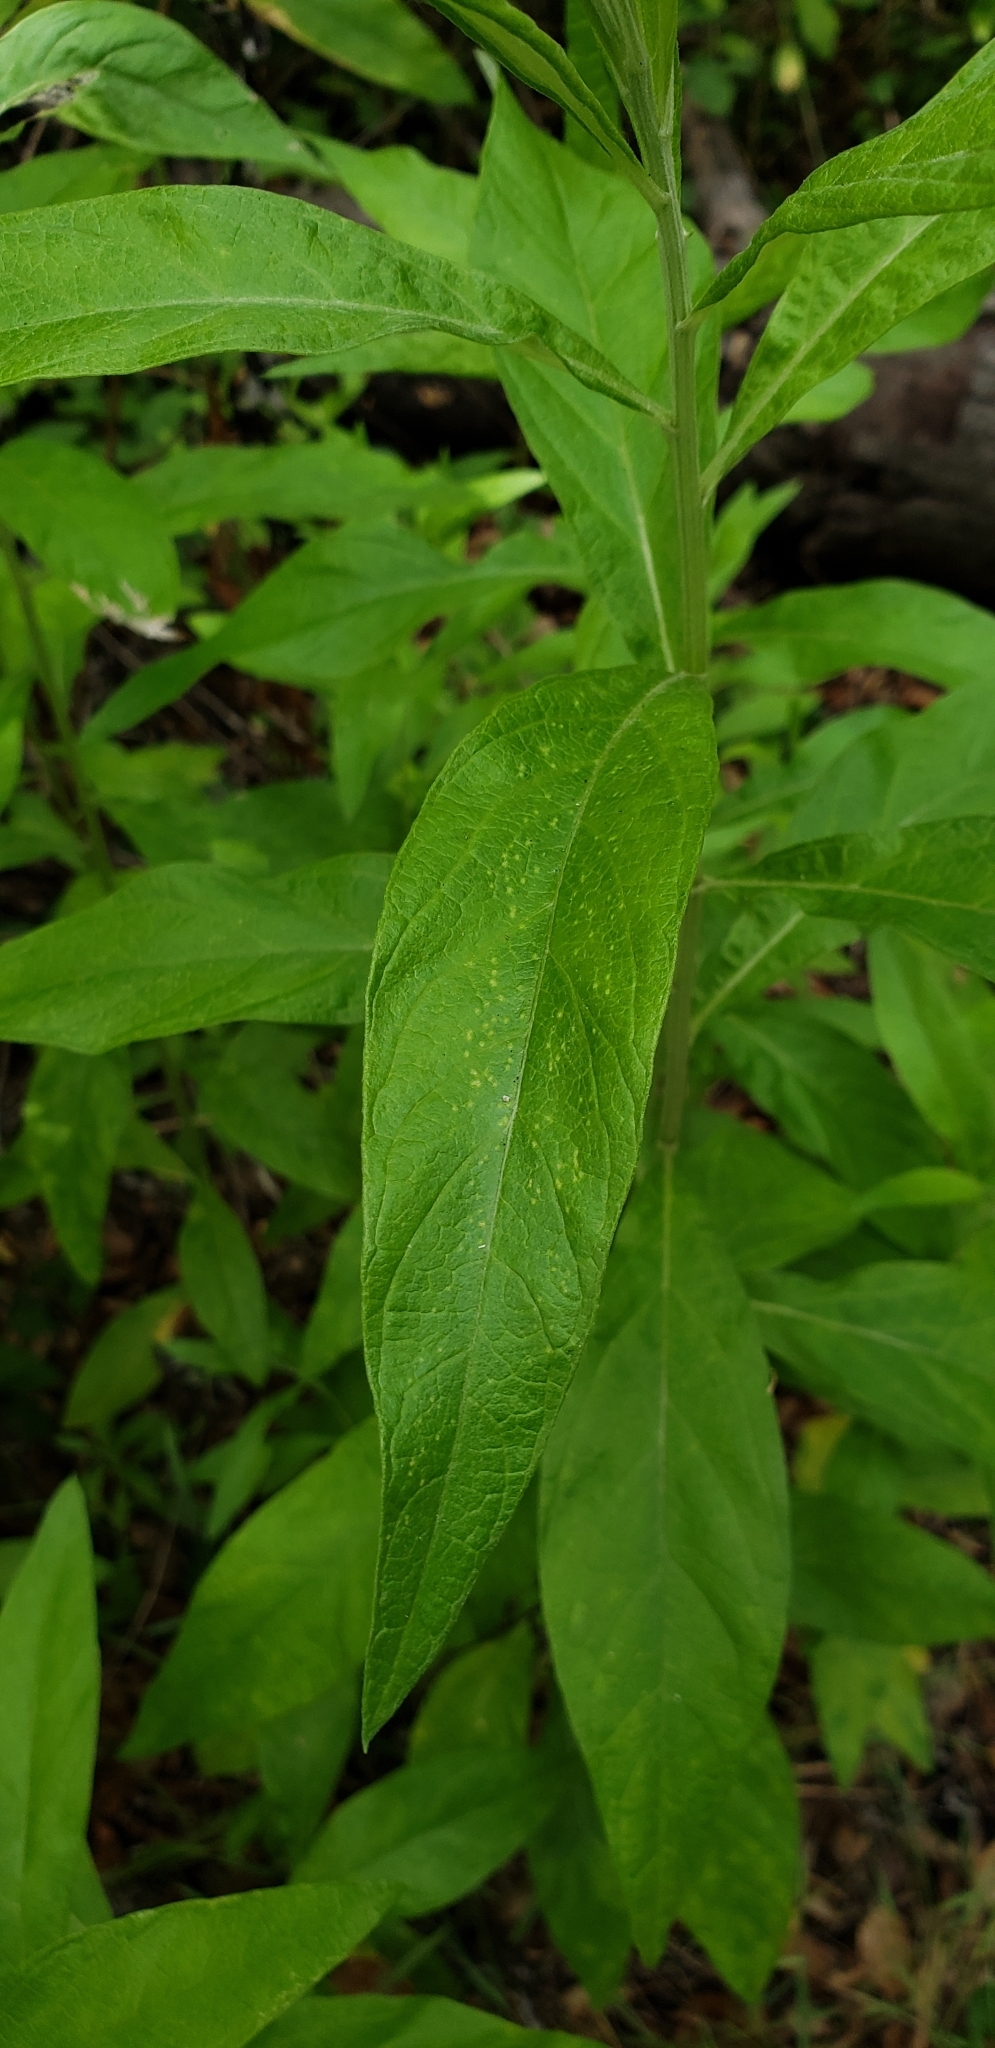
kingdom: Plantae
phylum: Tracheophyta
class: Magnoliopsida
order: Asterales
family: Asteraceae
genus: Artemisia
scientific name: Artemisia douglasiana
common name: Northwest mugwort
